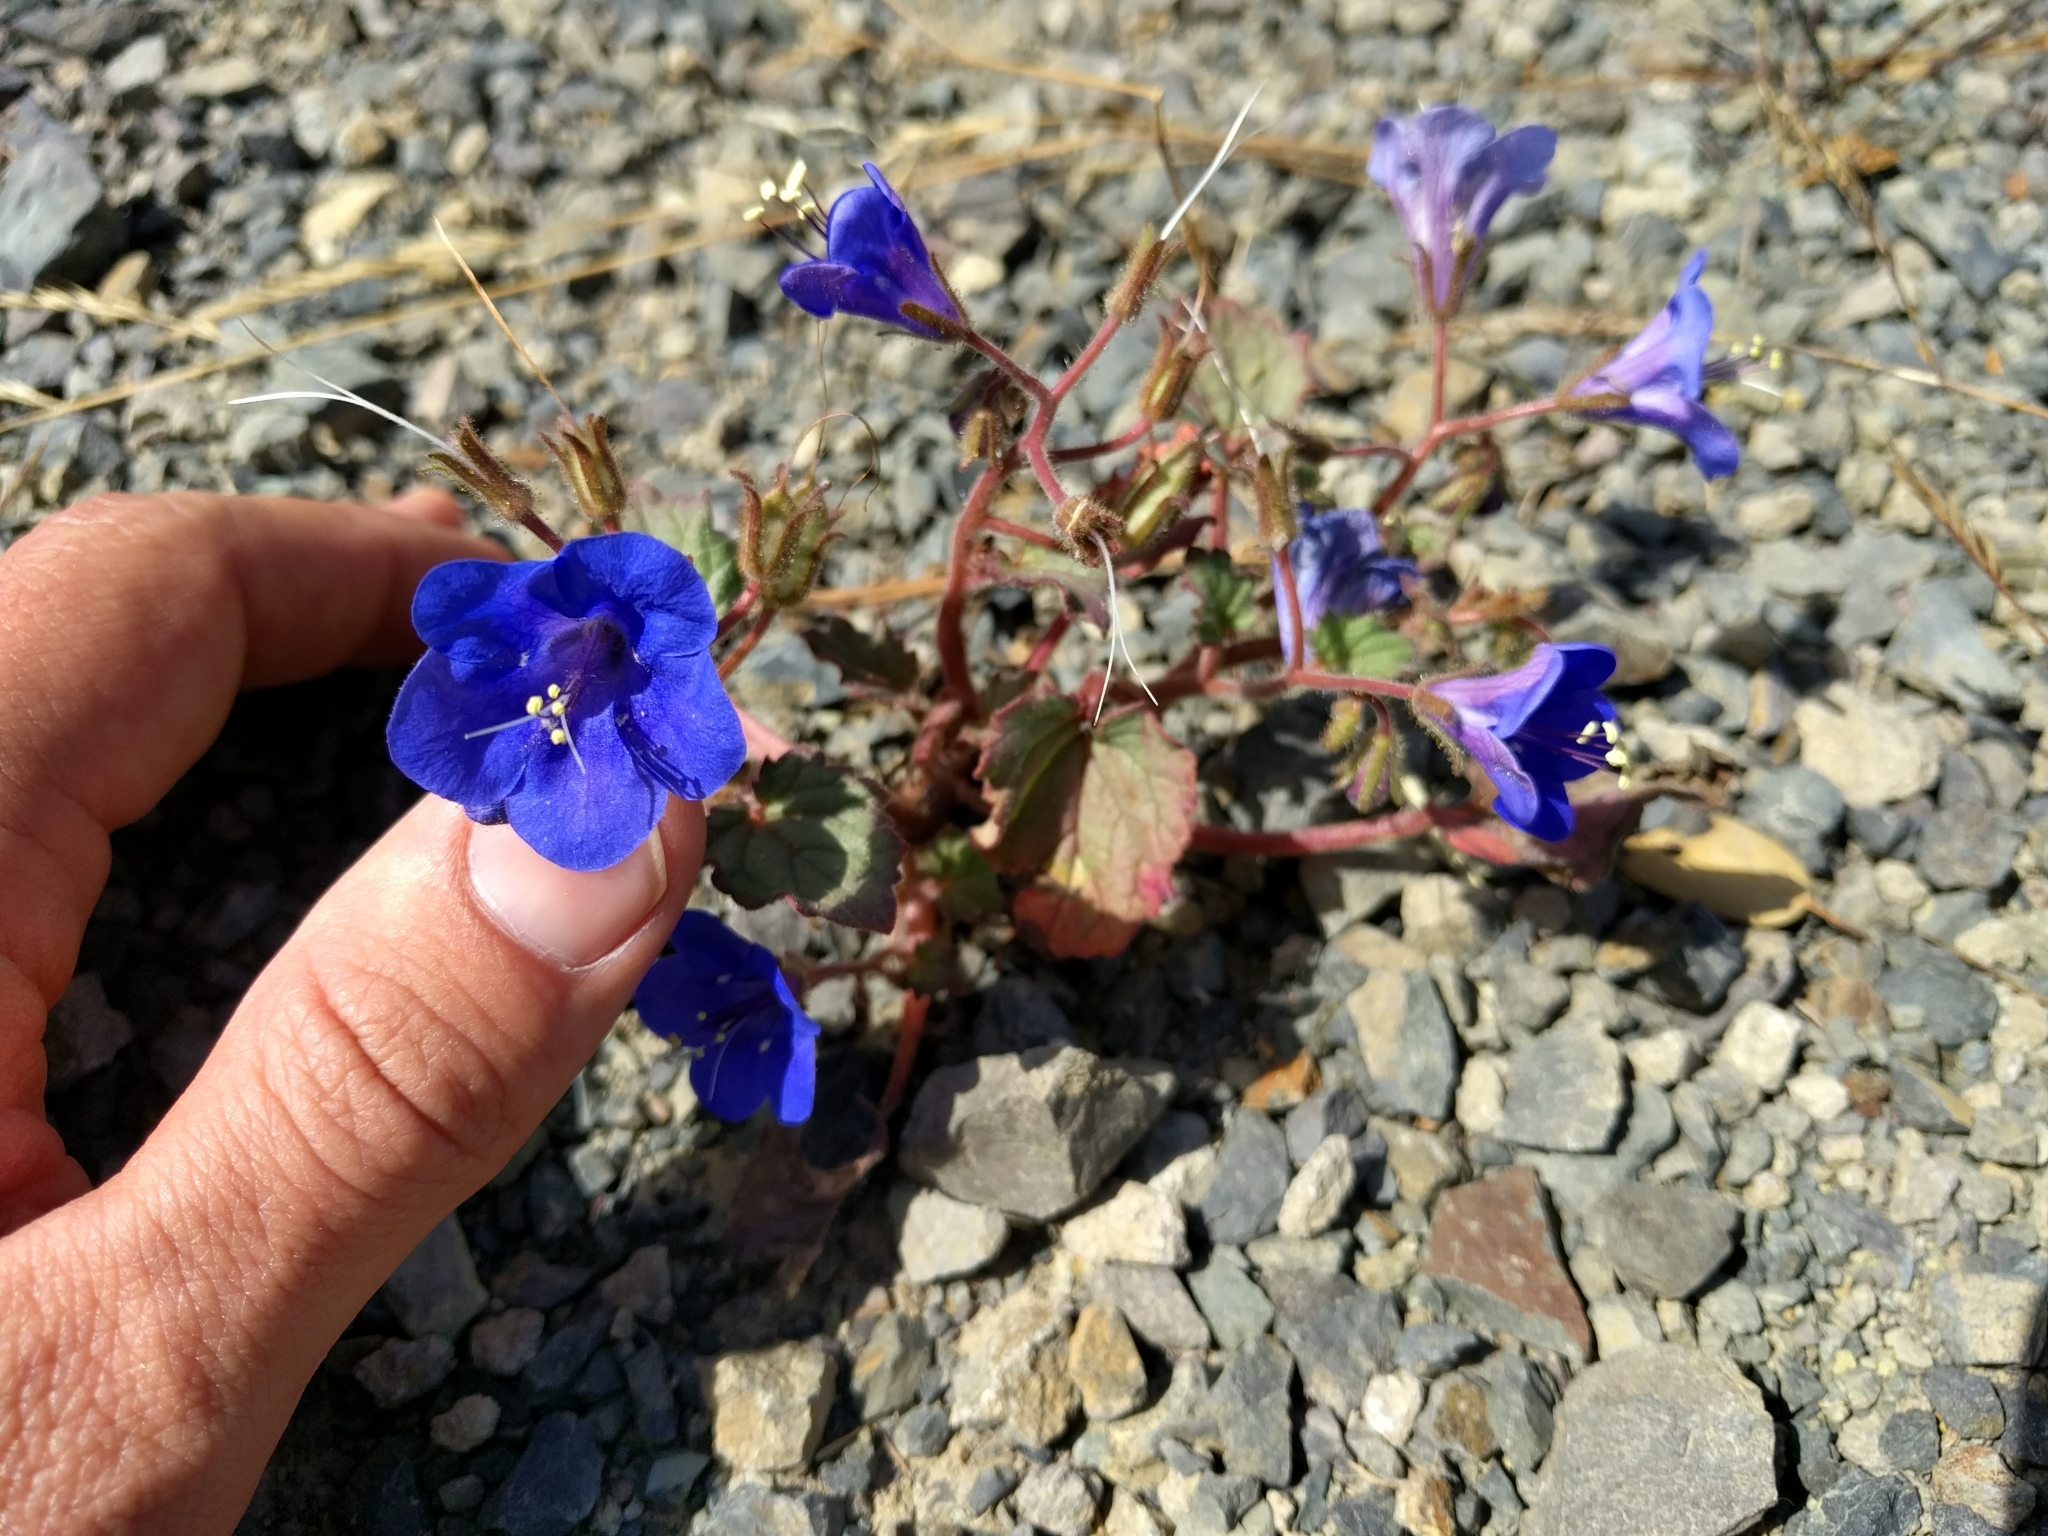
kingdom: Plantae
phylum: Tracheophyta
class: Magnoliopsida
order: Boraginales
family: Hydrophyllaceae
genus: Phacelia
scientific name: Phacelia campanularia
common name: California bluebell
